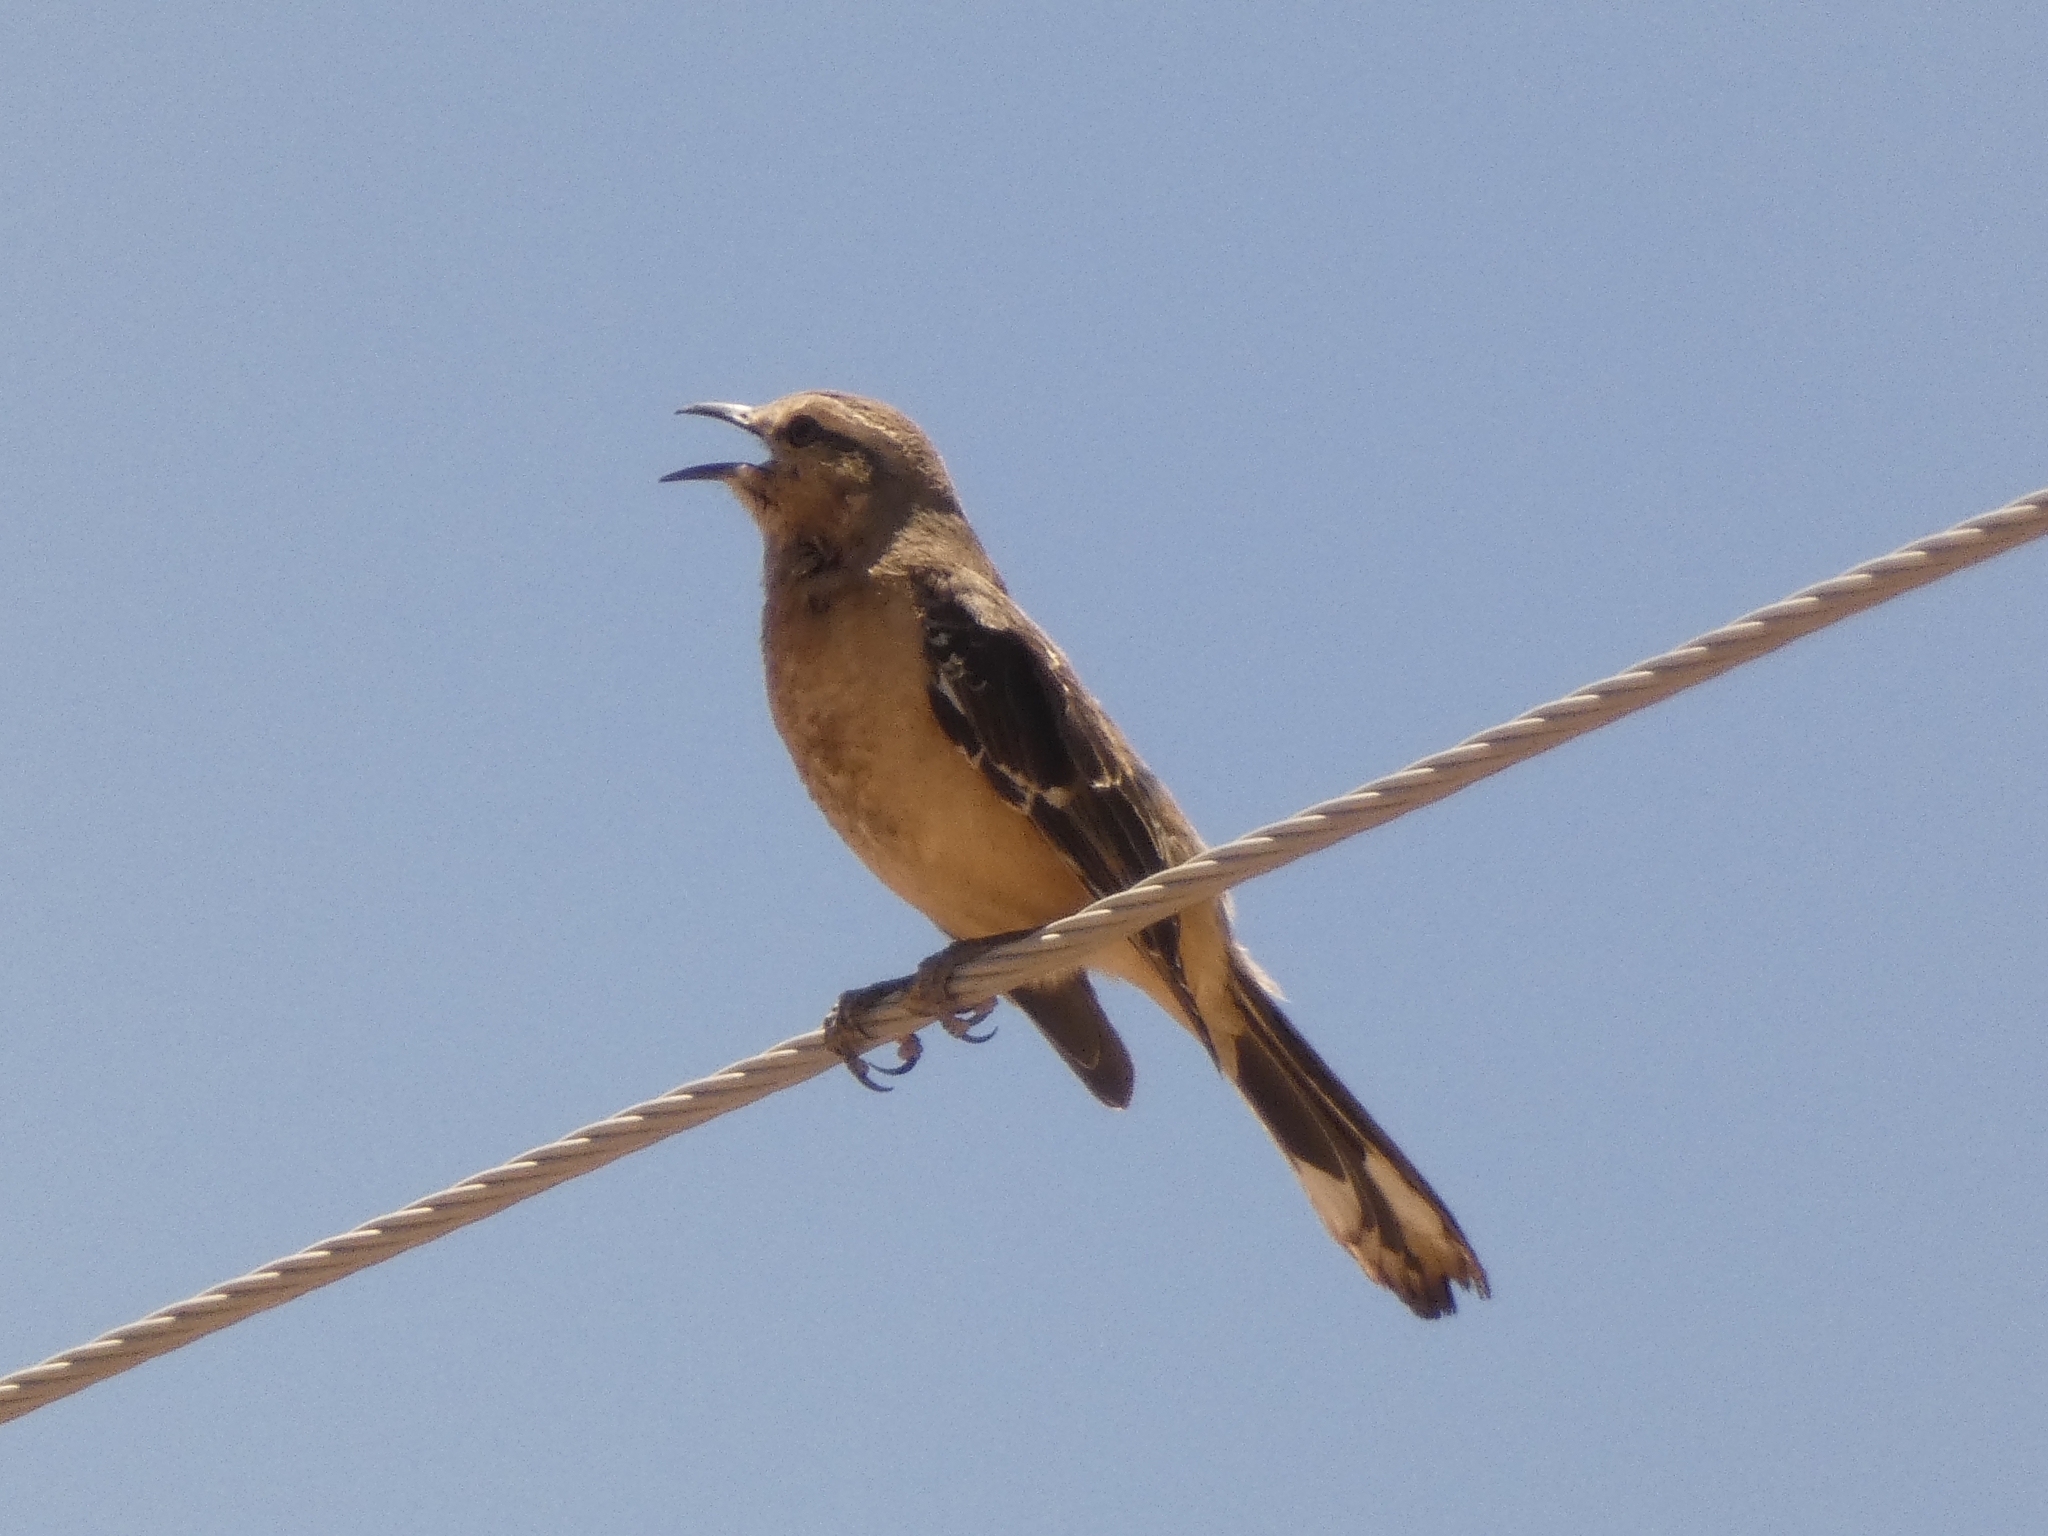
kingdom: Animalia
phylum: Chordata
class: Aves
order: Passeriformes
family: Mimidae
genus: Mimus
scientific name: Mimus patagonicus
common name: Patagonian mockingbird
